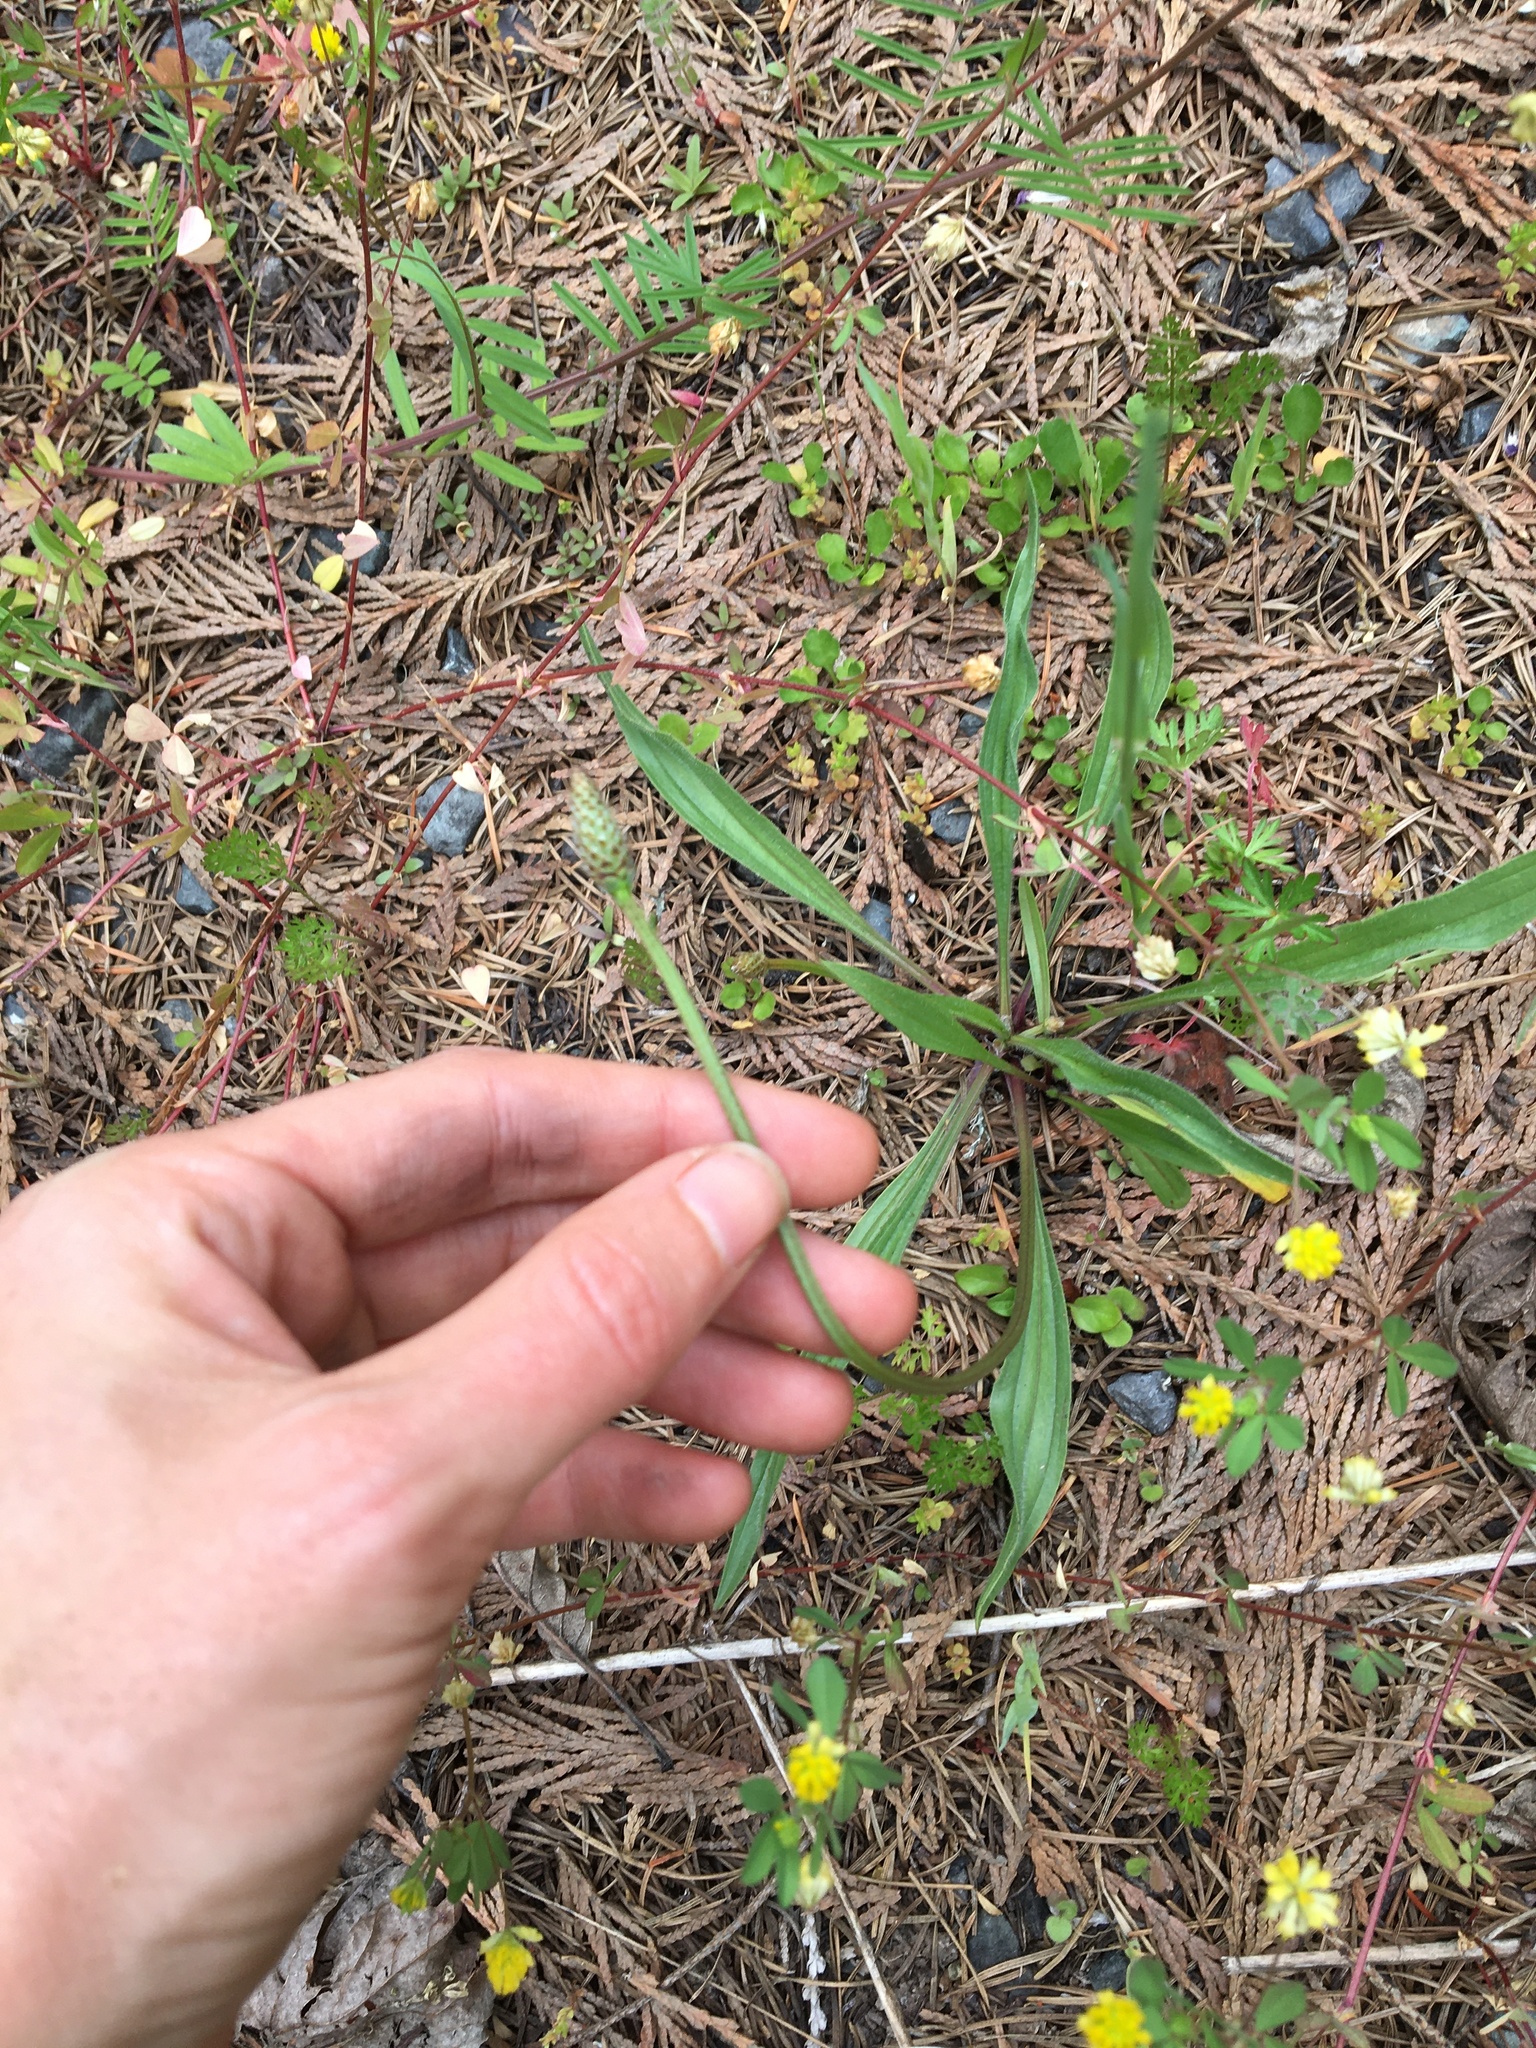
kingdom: Plantae
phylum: Tracheophyta
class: Magnoliopsida
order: Lamiales
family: Plantaginaceae
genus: Plantago
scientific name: Plantago lanceolata
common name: Ribwort plantain
